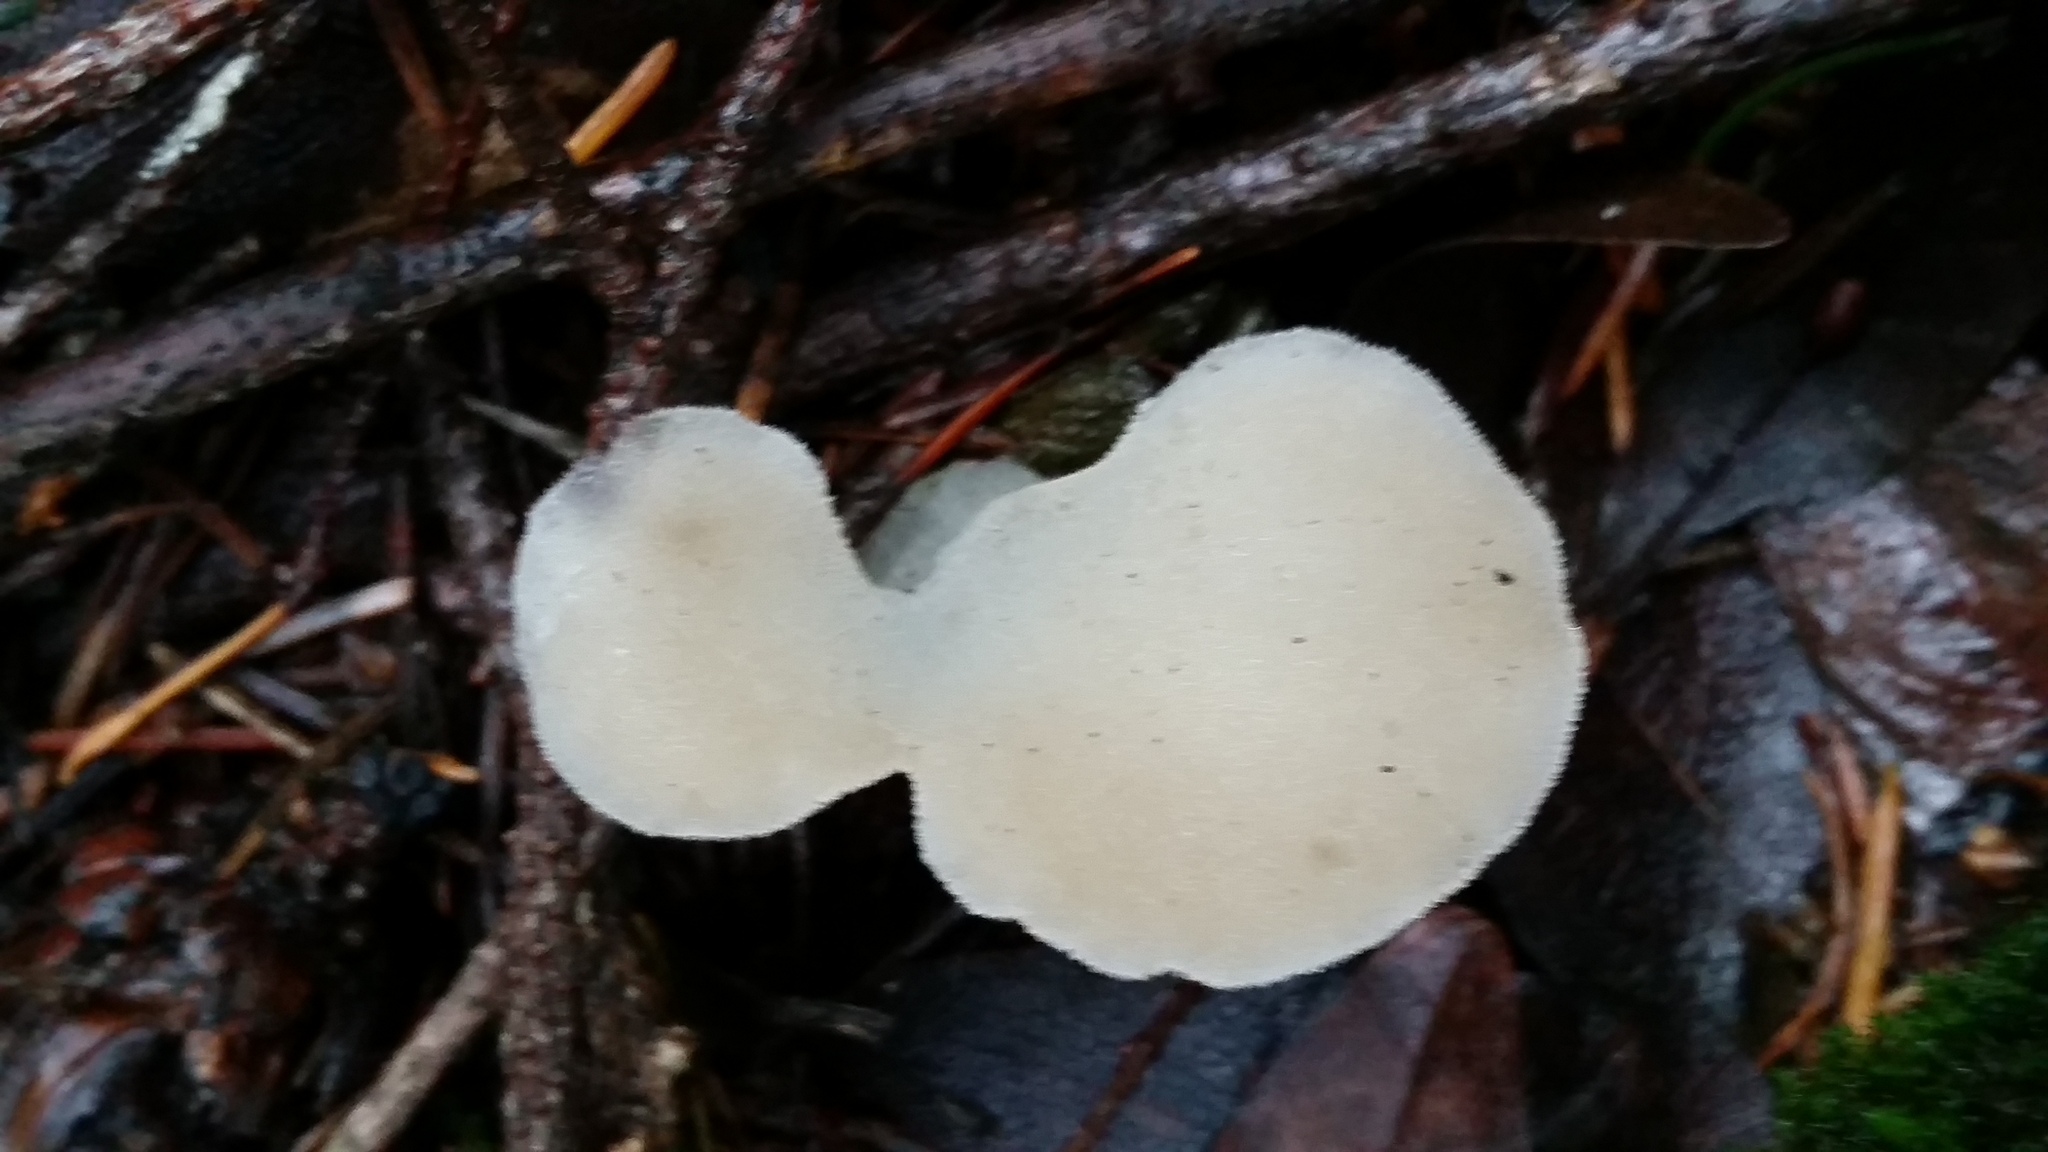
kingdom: Fungi
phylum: Basidiomycota
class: Agaricomycetes
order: Auriculariales
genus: Pseudohydnum
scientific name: Pseudohydnum gelatinosum
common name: Jelly tongue
